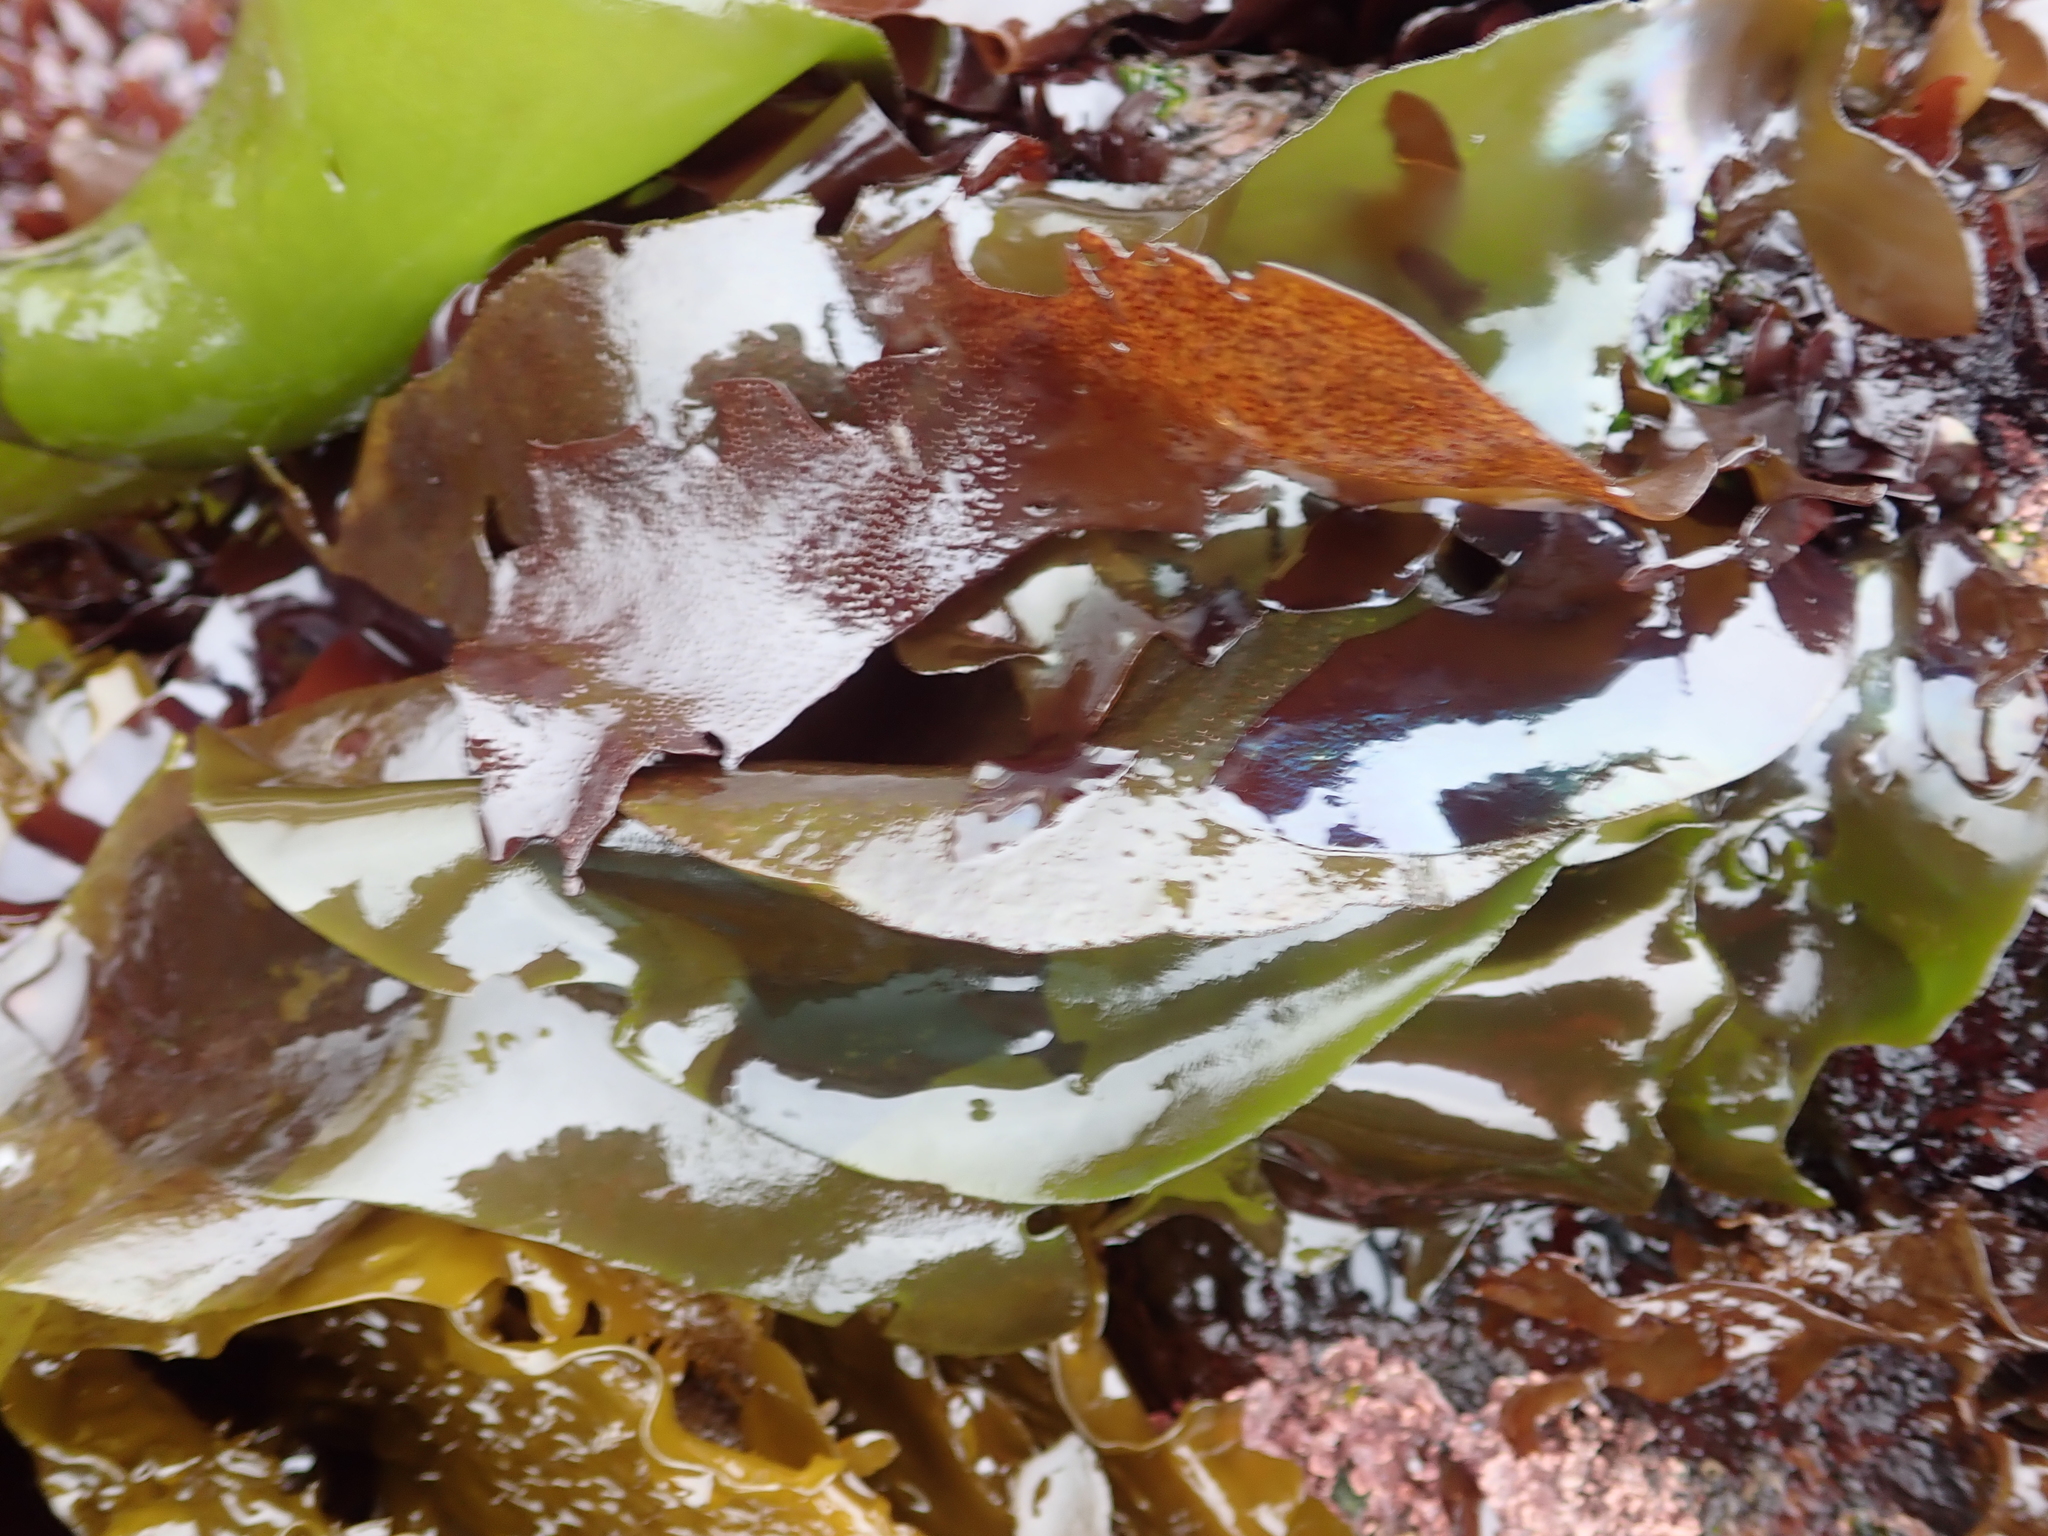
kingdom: Plantae
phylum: Rhodophyta
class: Florideophyceae
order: Gigartinales
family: Gigartinaceae
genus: Mazzaella
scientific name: Mazzaella flaccida
